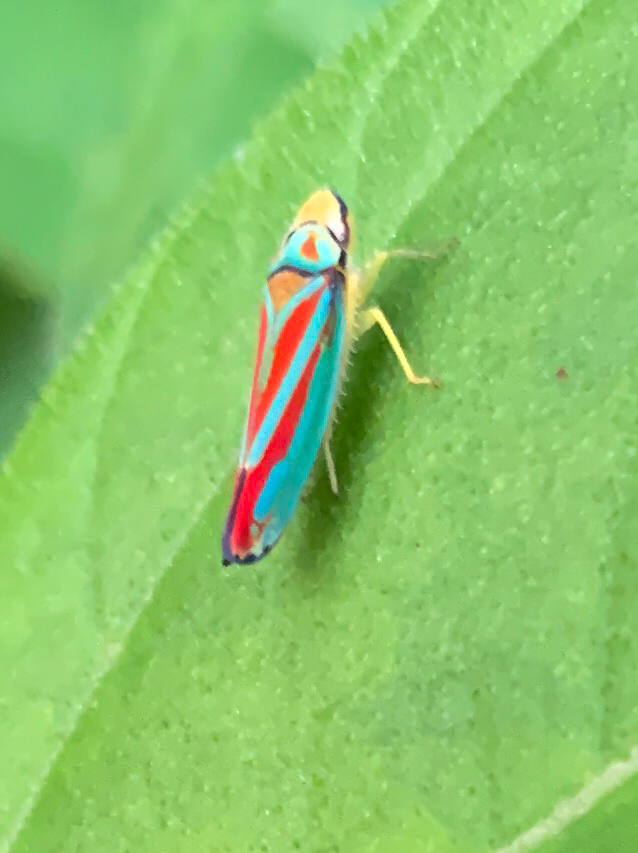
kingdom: Animalia
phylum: Arthropoda
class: Insecta
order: Hemiptera
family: Cicadellidae
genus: Graphocephala
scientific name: Graphocephala coccinea
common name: Candy-striped leafhopper
